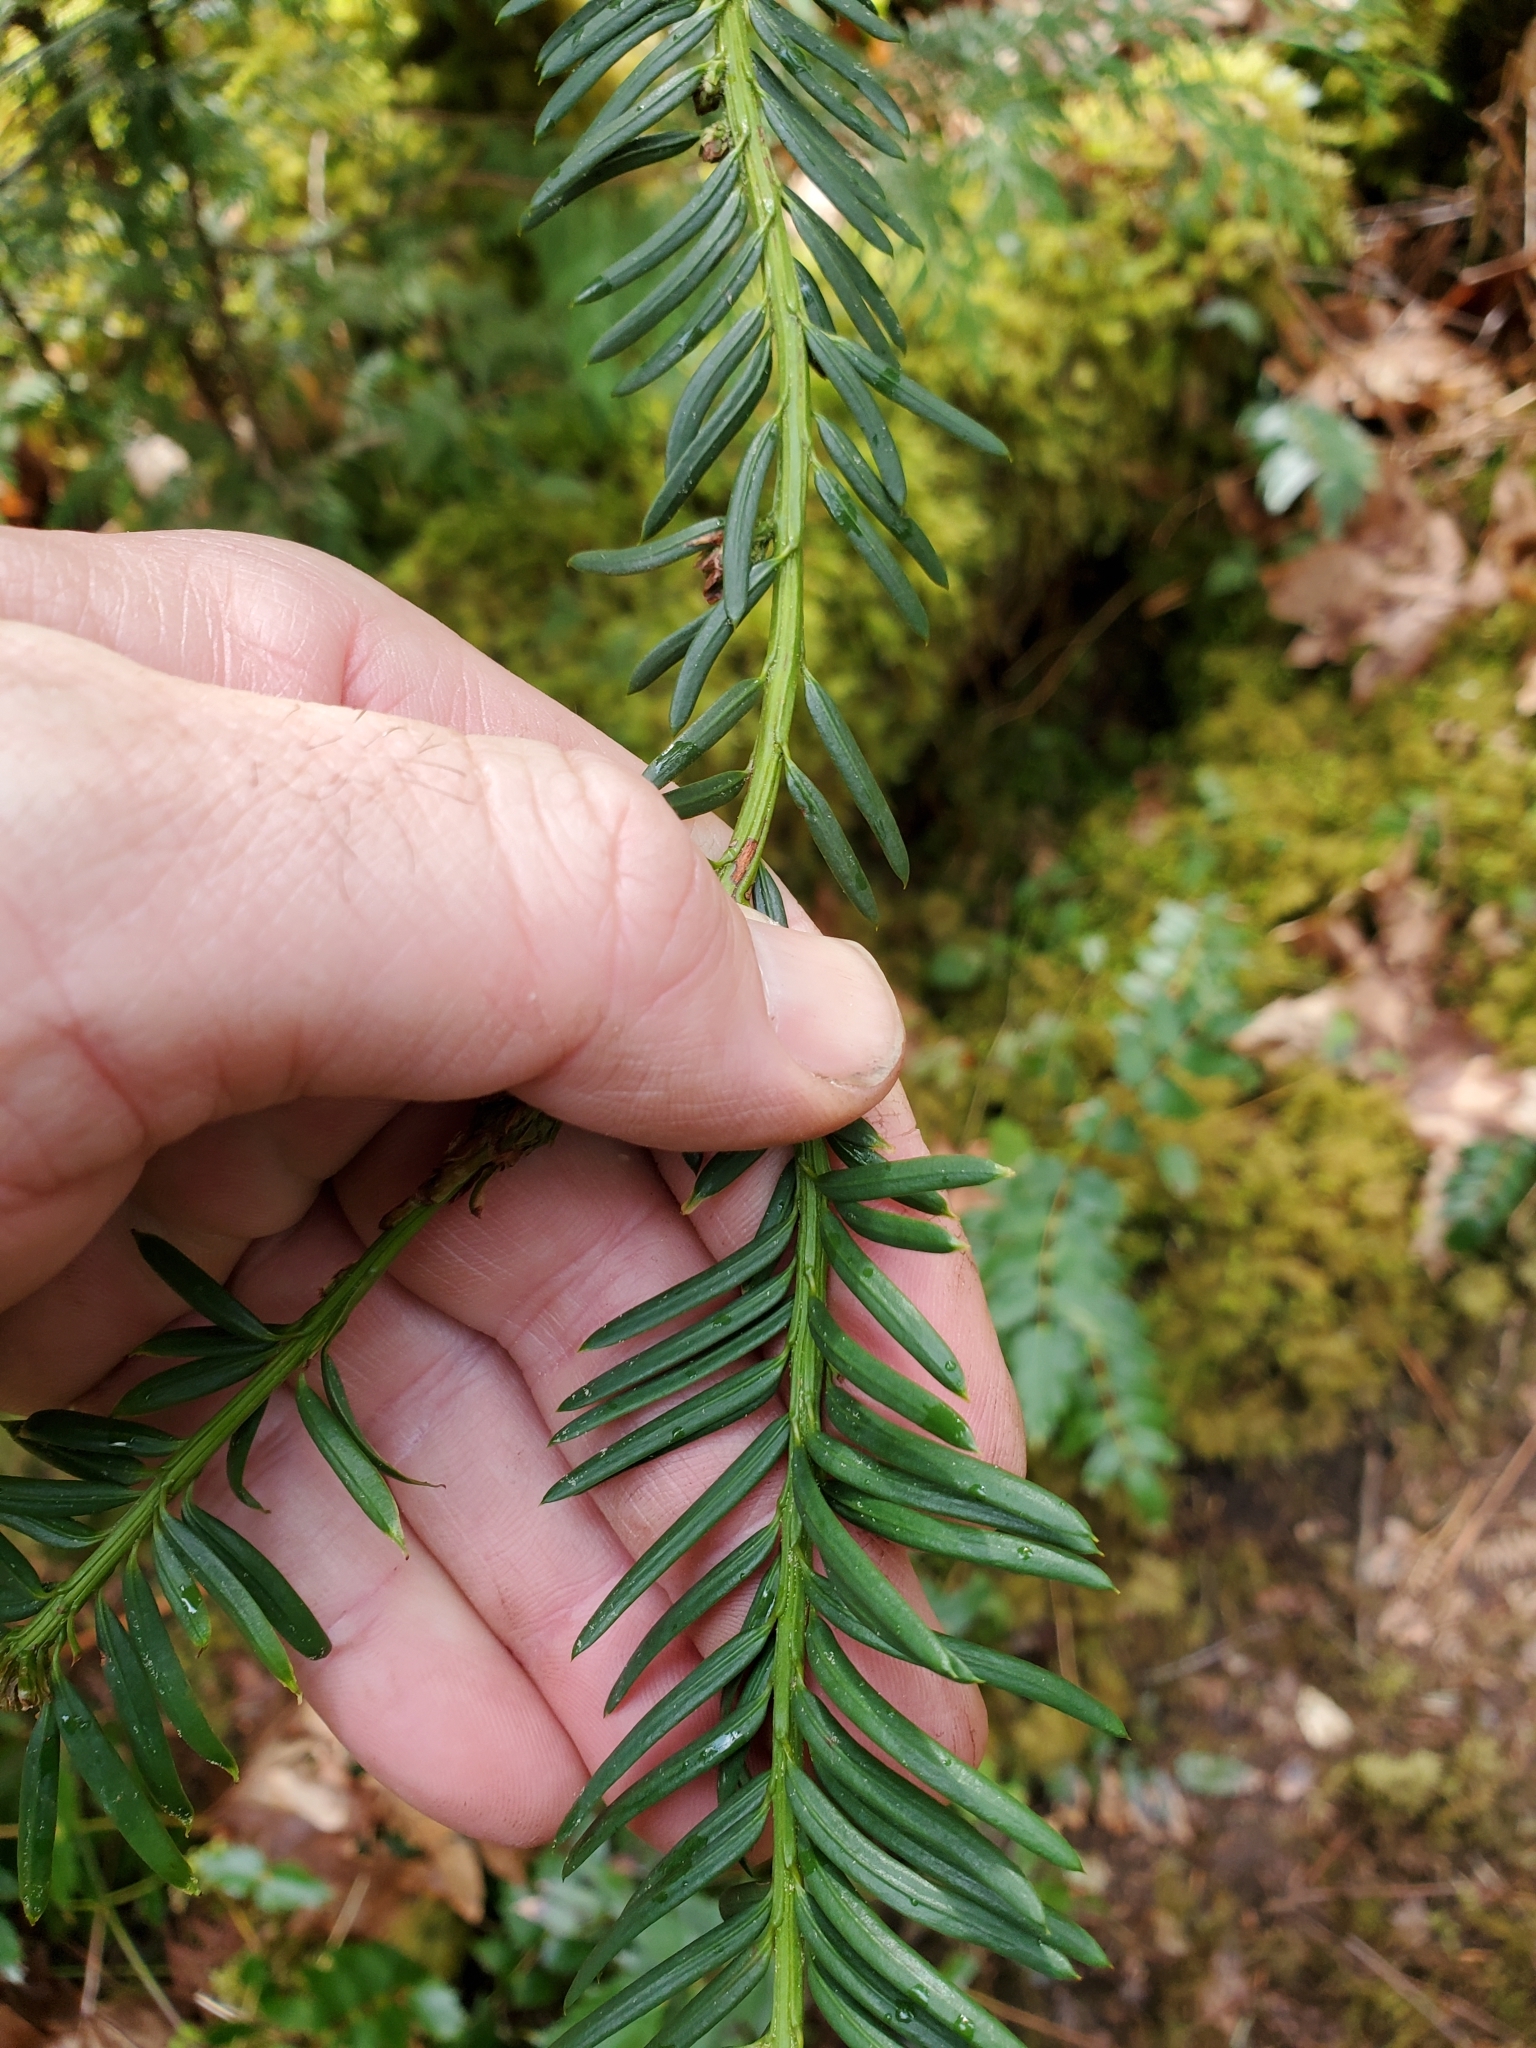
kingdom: Plantae
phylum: Tracheophyta
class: Pinopsida
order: Pinales
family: Taxaceae
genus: Taxus
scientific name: Taxus brevifolia
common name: Pacific yew
